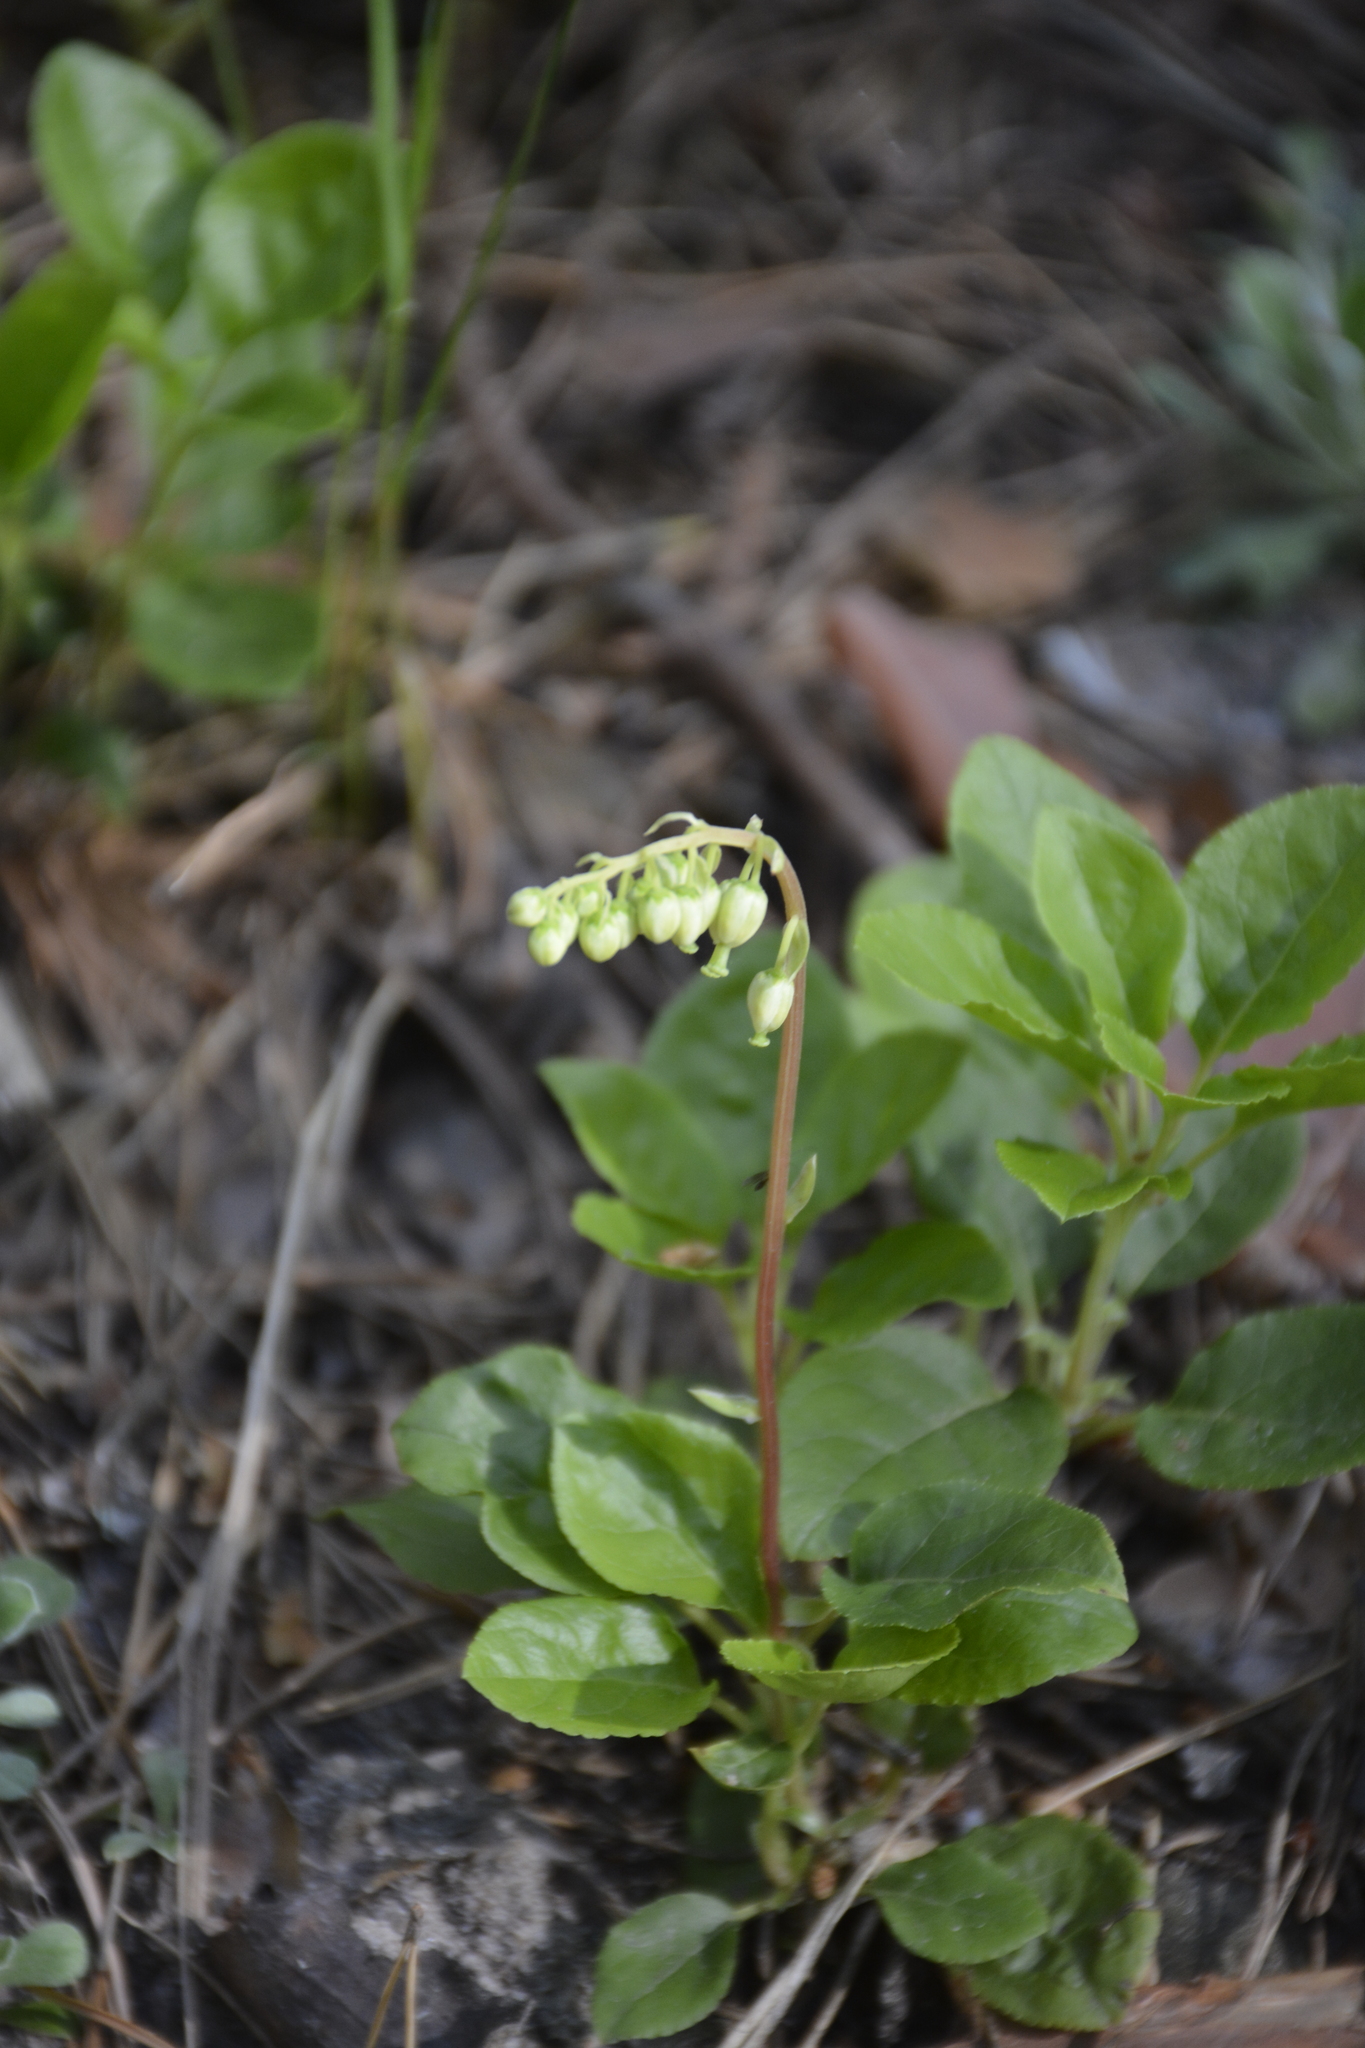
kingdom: Plantae
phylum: Tracheophyta
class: Magnoliopsida
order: Ericales
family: Ericaceae
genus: Orthilia
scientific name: Orthilia secunda
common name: One-sided orthilia
